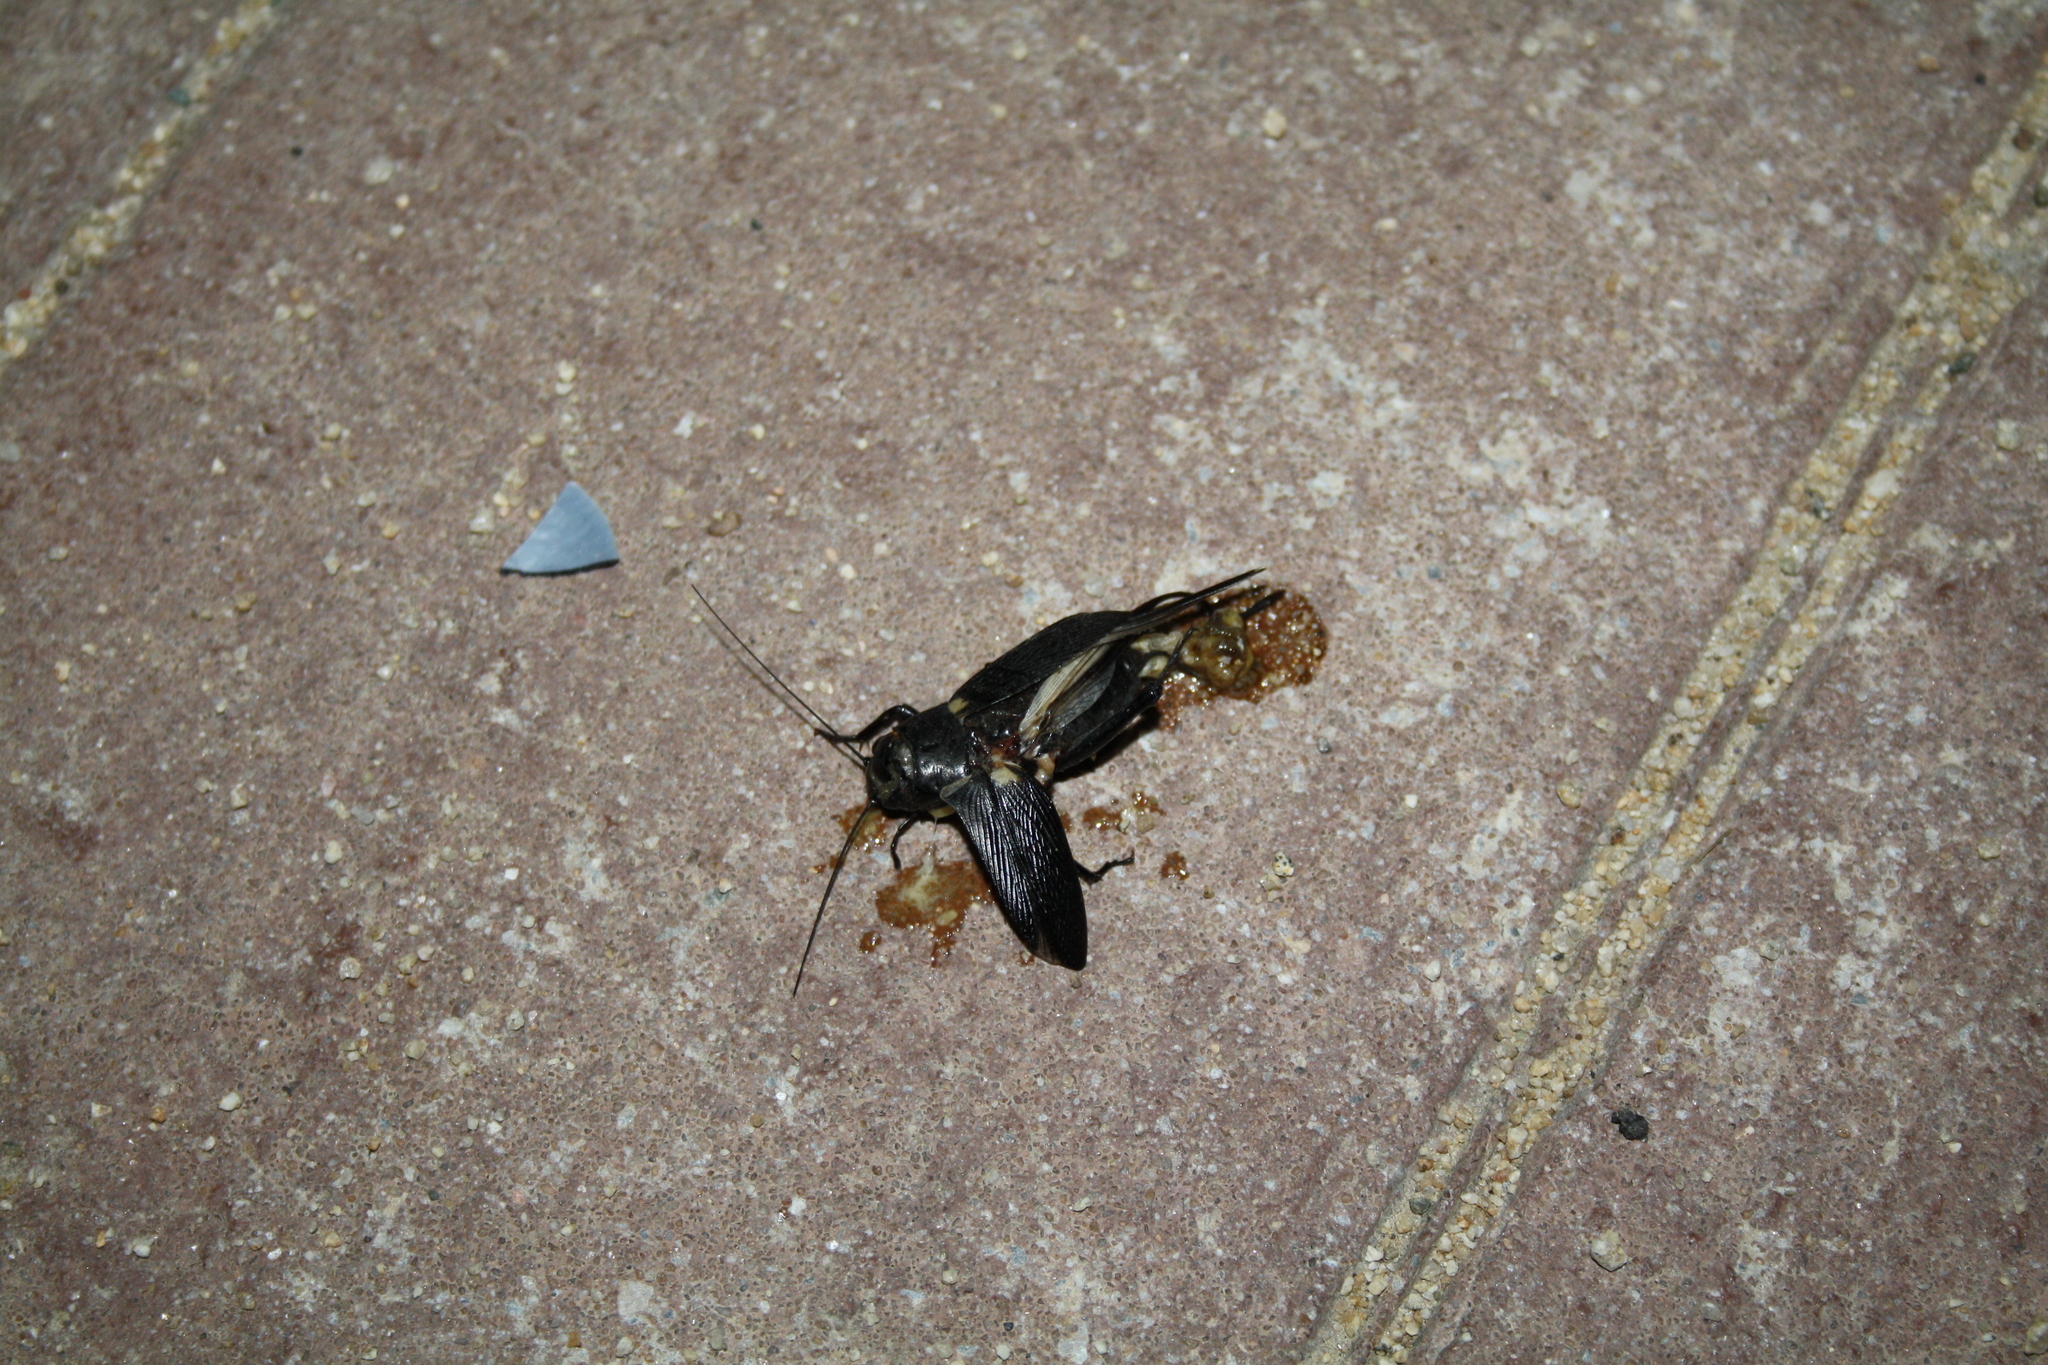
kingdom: Animalia
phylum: Arthropoda
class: Insecta
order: Orthoptera
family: Gryllidae
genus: Gryllus
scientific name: Gryllus bimaculatus
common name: Two-spotted cricket
